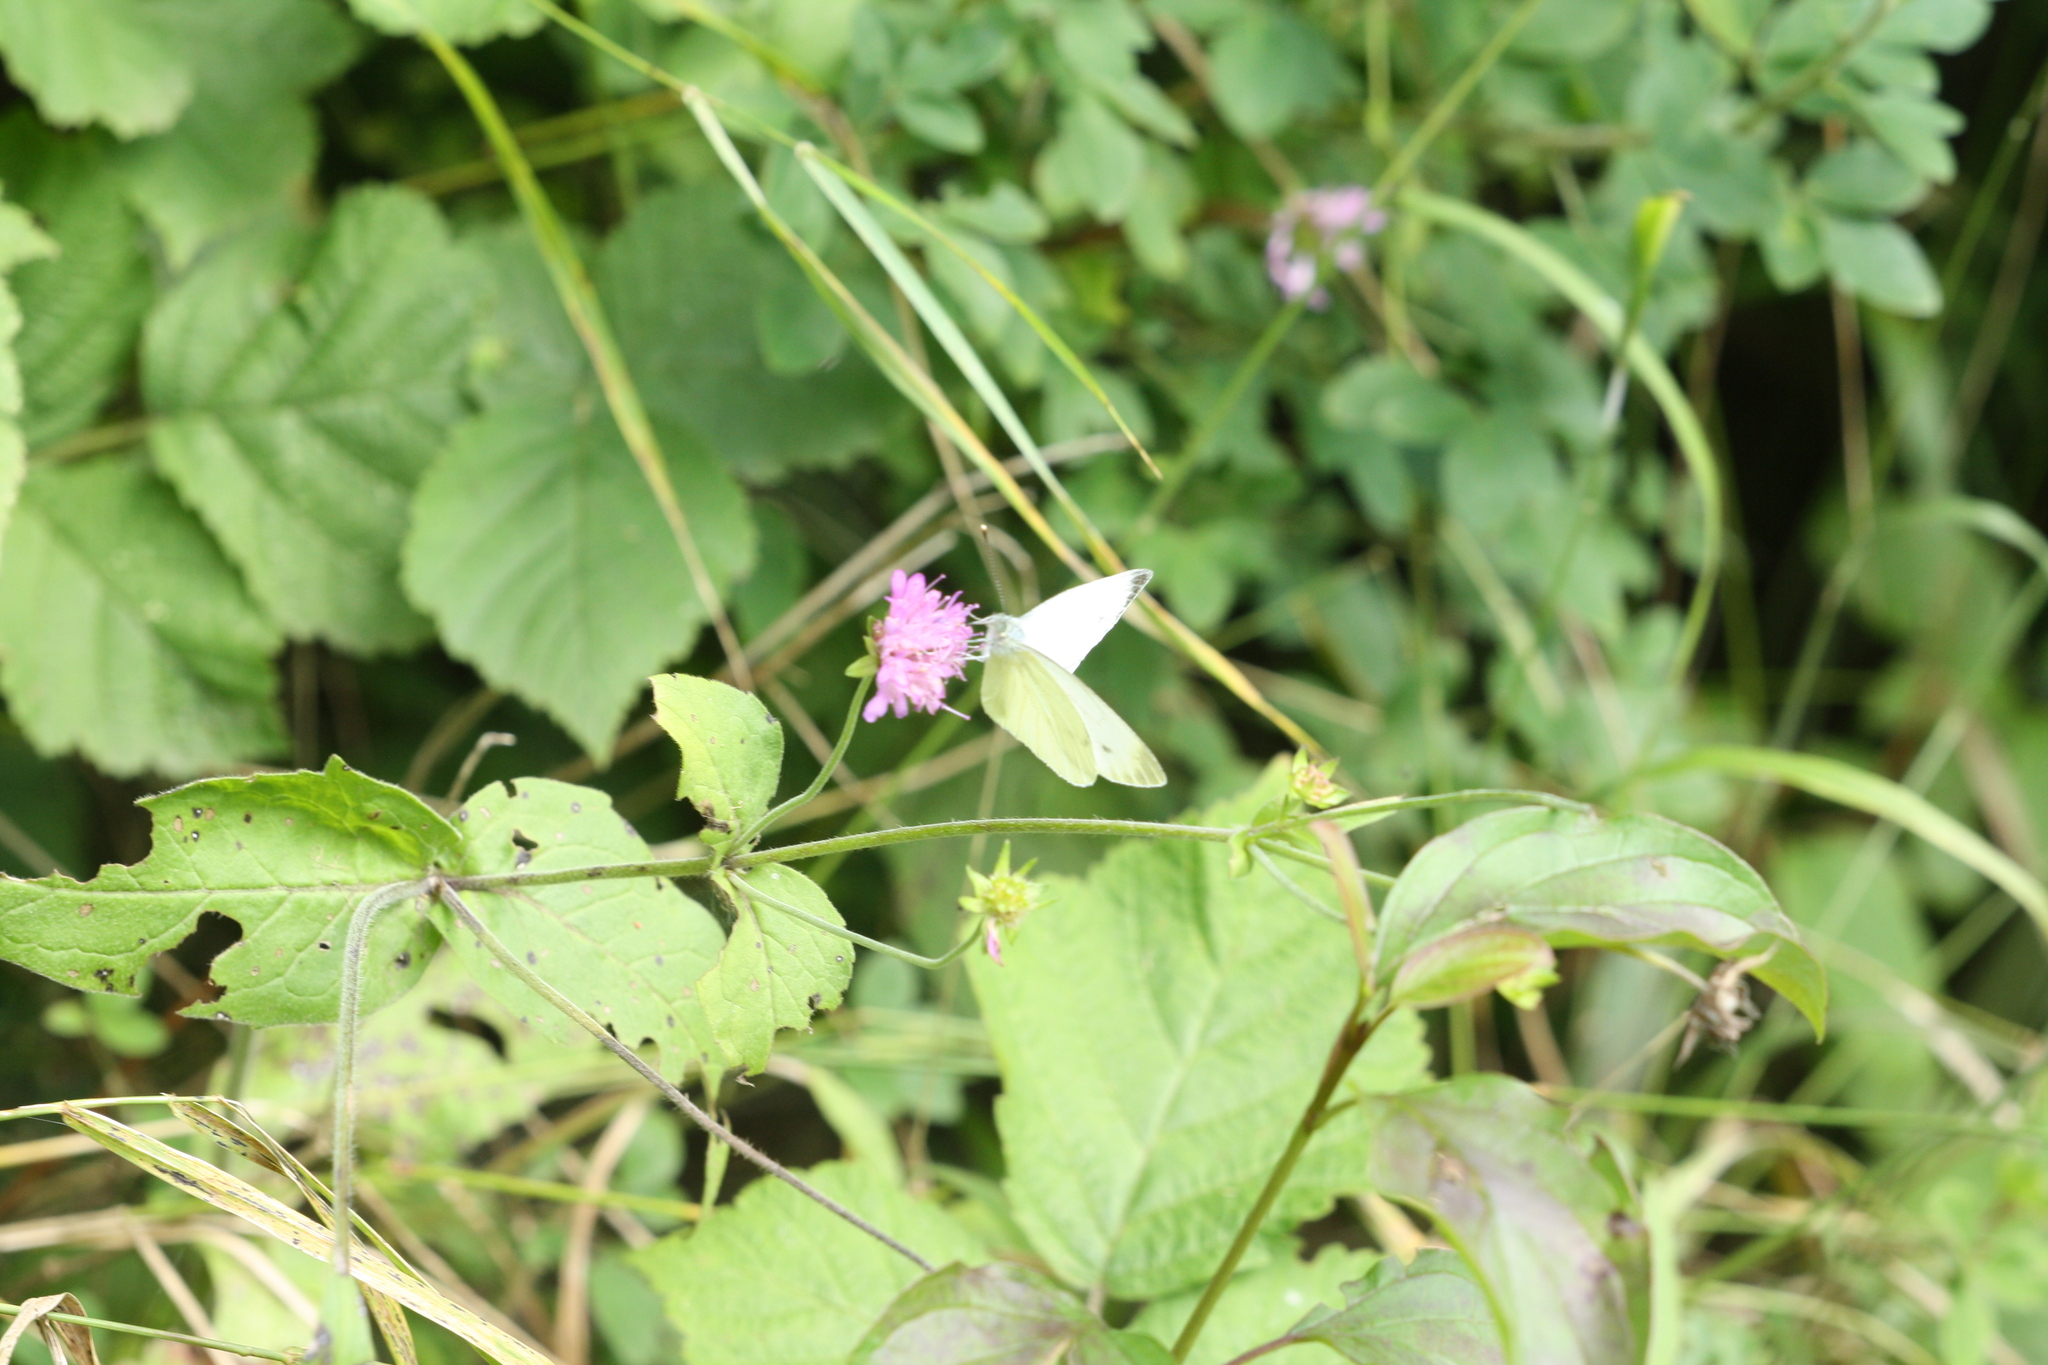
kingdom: Animalia
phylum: Arthropoda
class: Insecta
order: Lepidoptera
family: Pieridae
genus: Pieris
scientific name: Pieris napi
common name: Green-veined white
